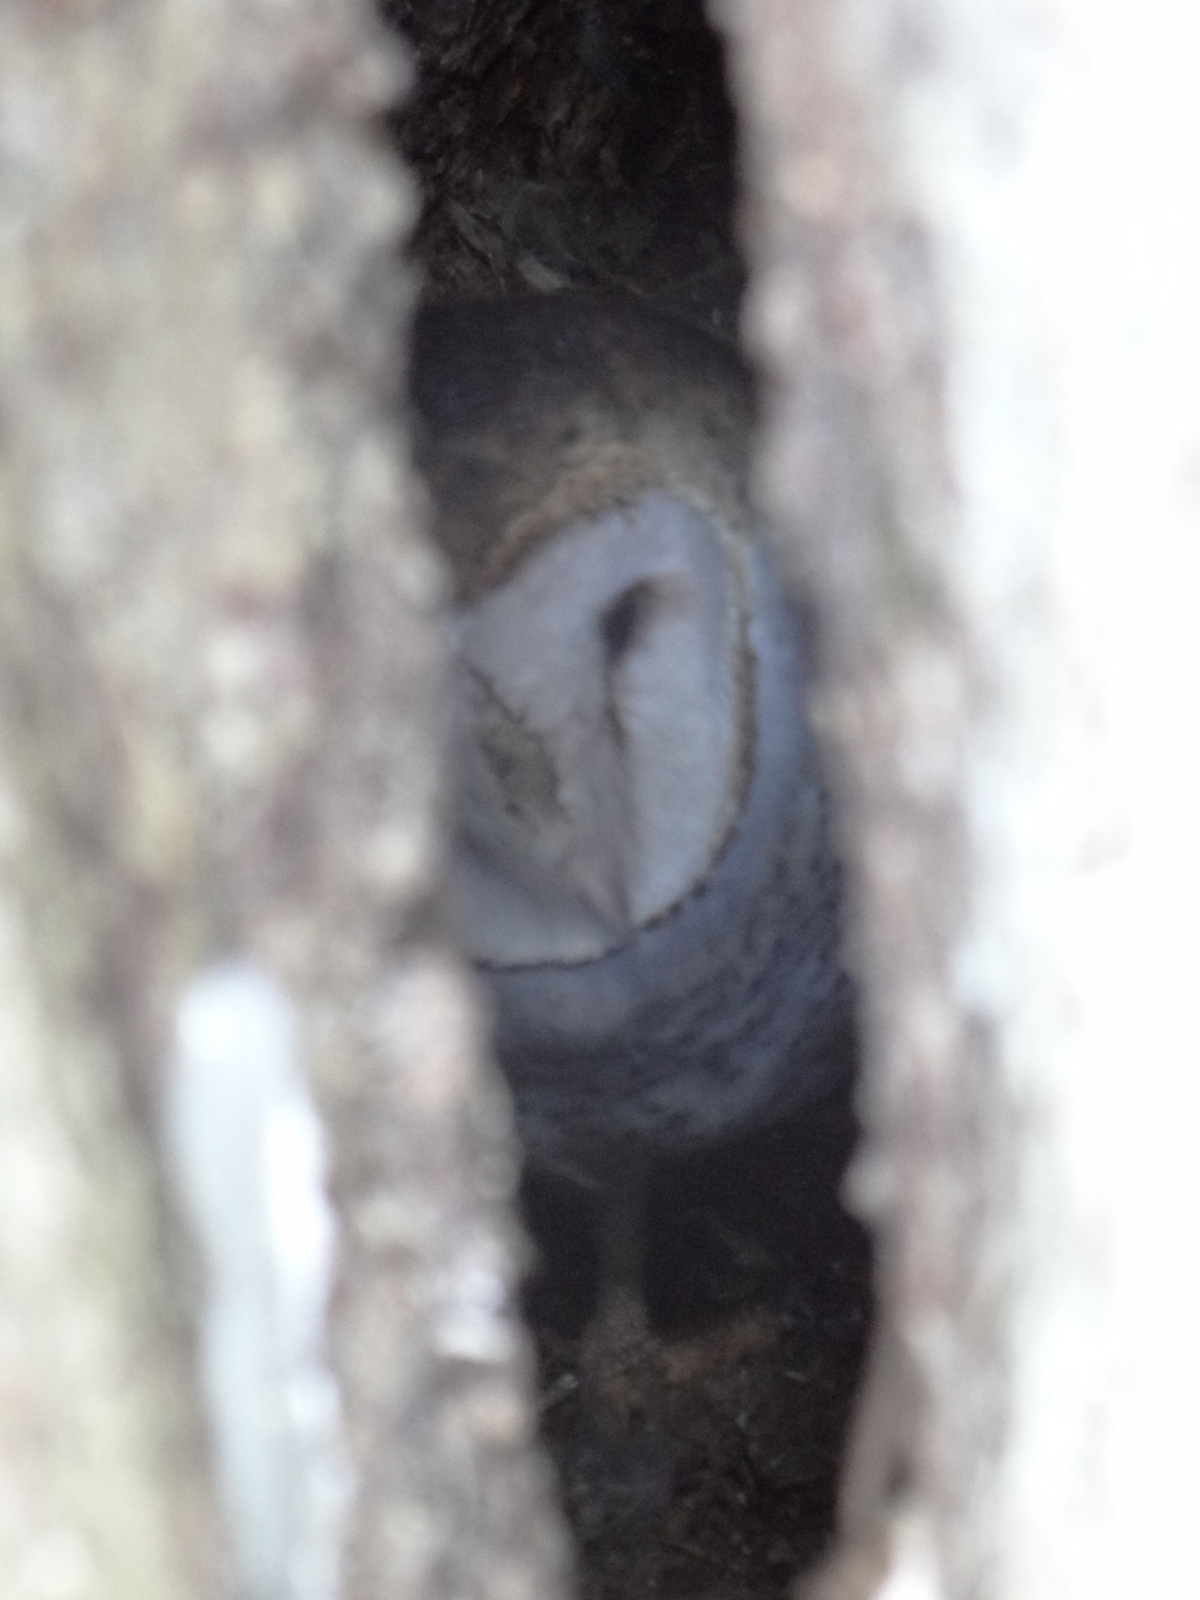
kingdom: Animalia
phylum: Chordata
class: Aves
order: Strigiformes
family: Tytonidae
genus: Tyto
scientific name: Tyto alba
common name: Barn owl
